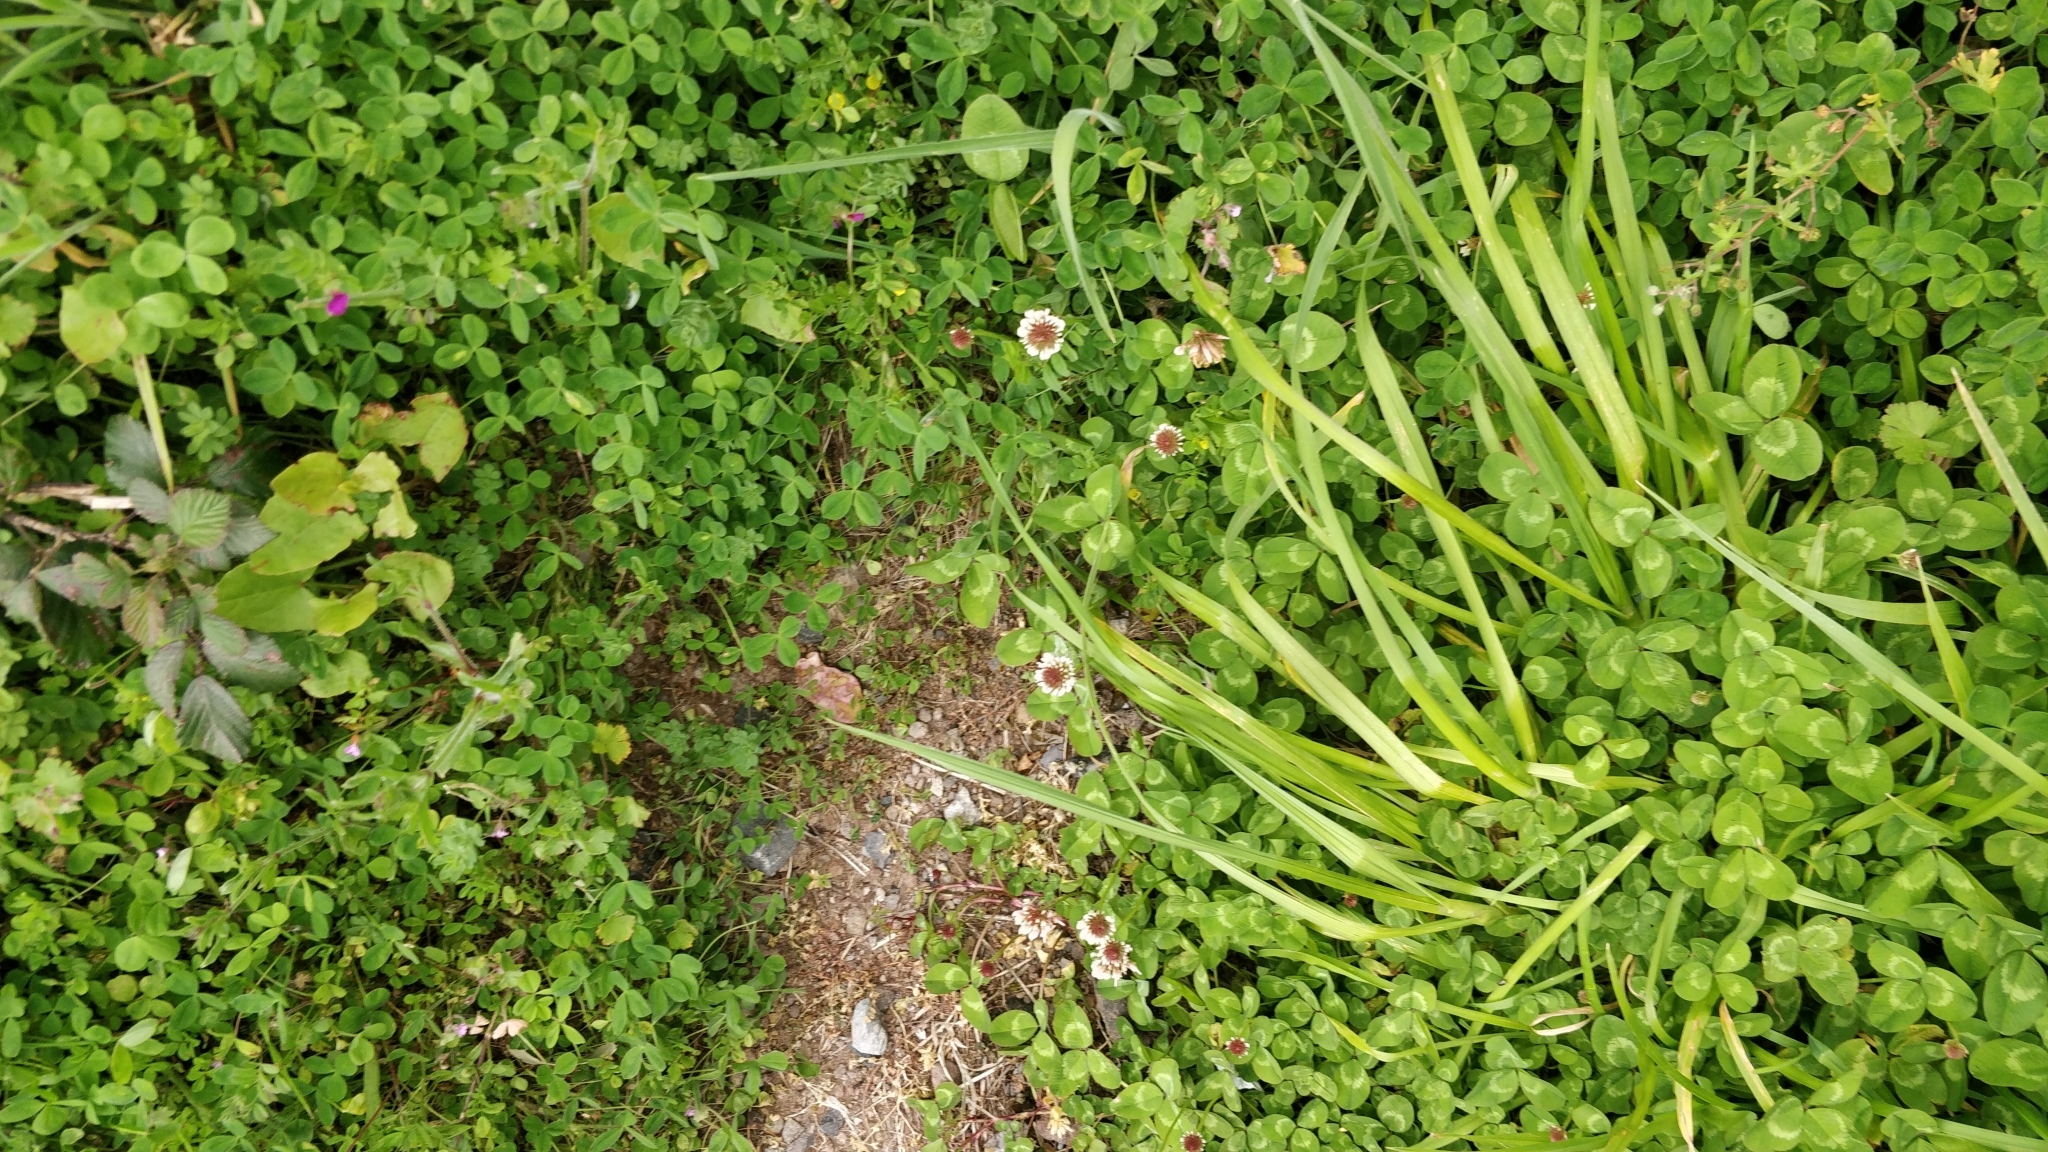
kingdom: Plantae
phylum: Tracheophyta
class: Magnoliopsida
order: Fabales
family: Fabaceae
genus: Trifolium
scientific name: Trifolium repens
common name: White clover
